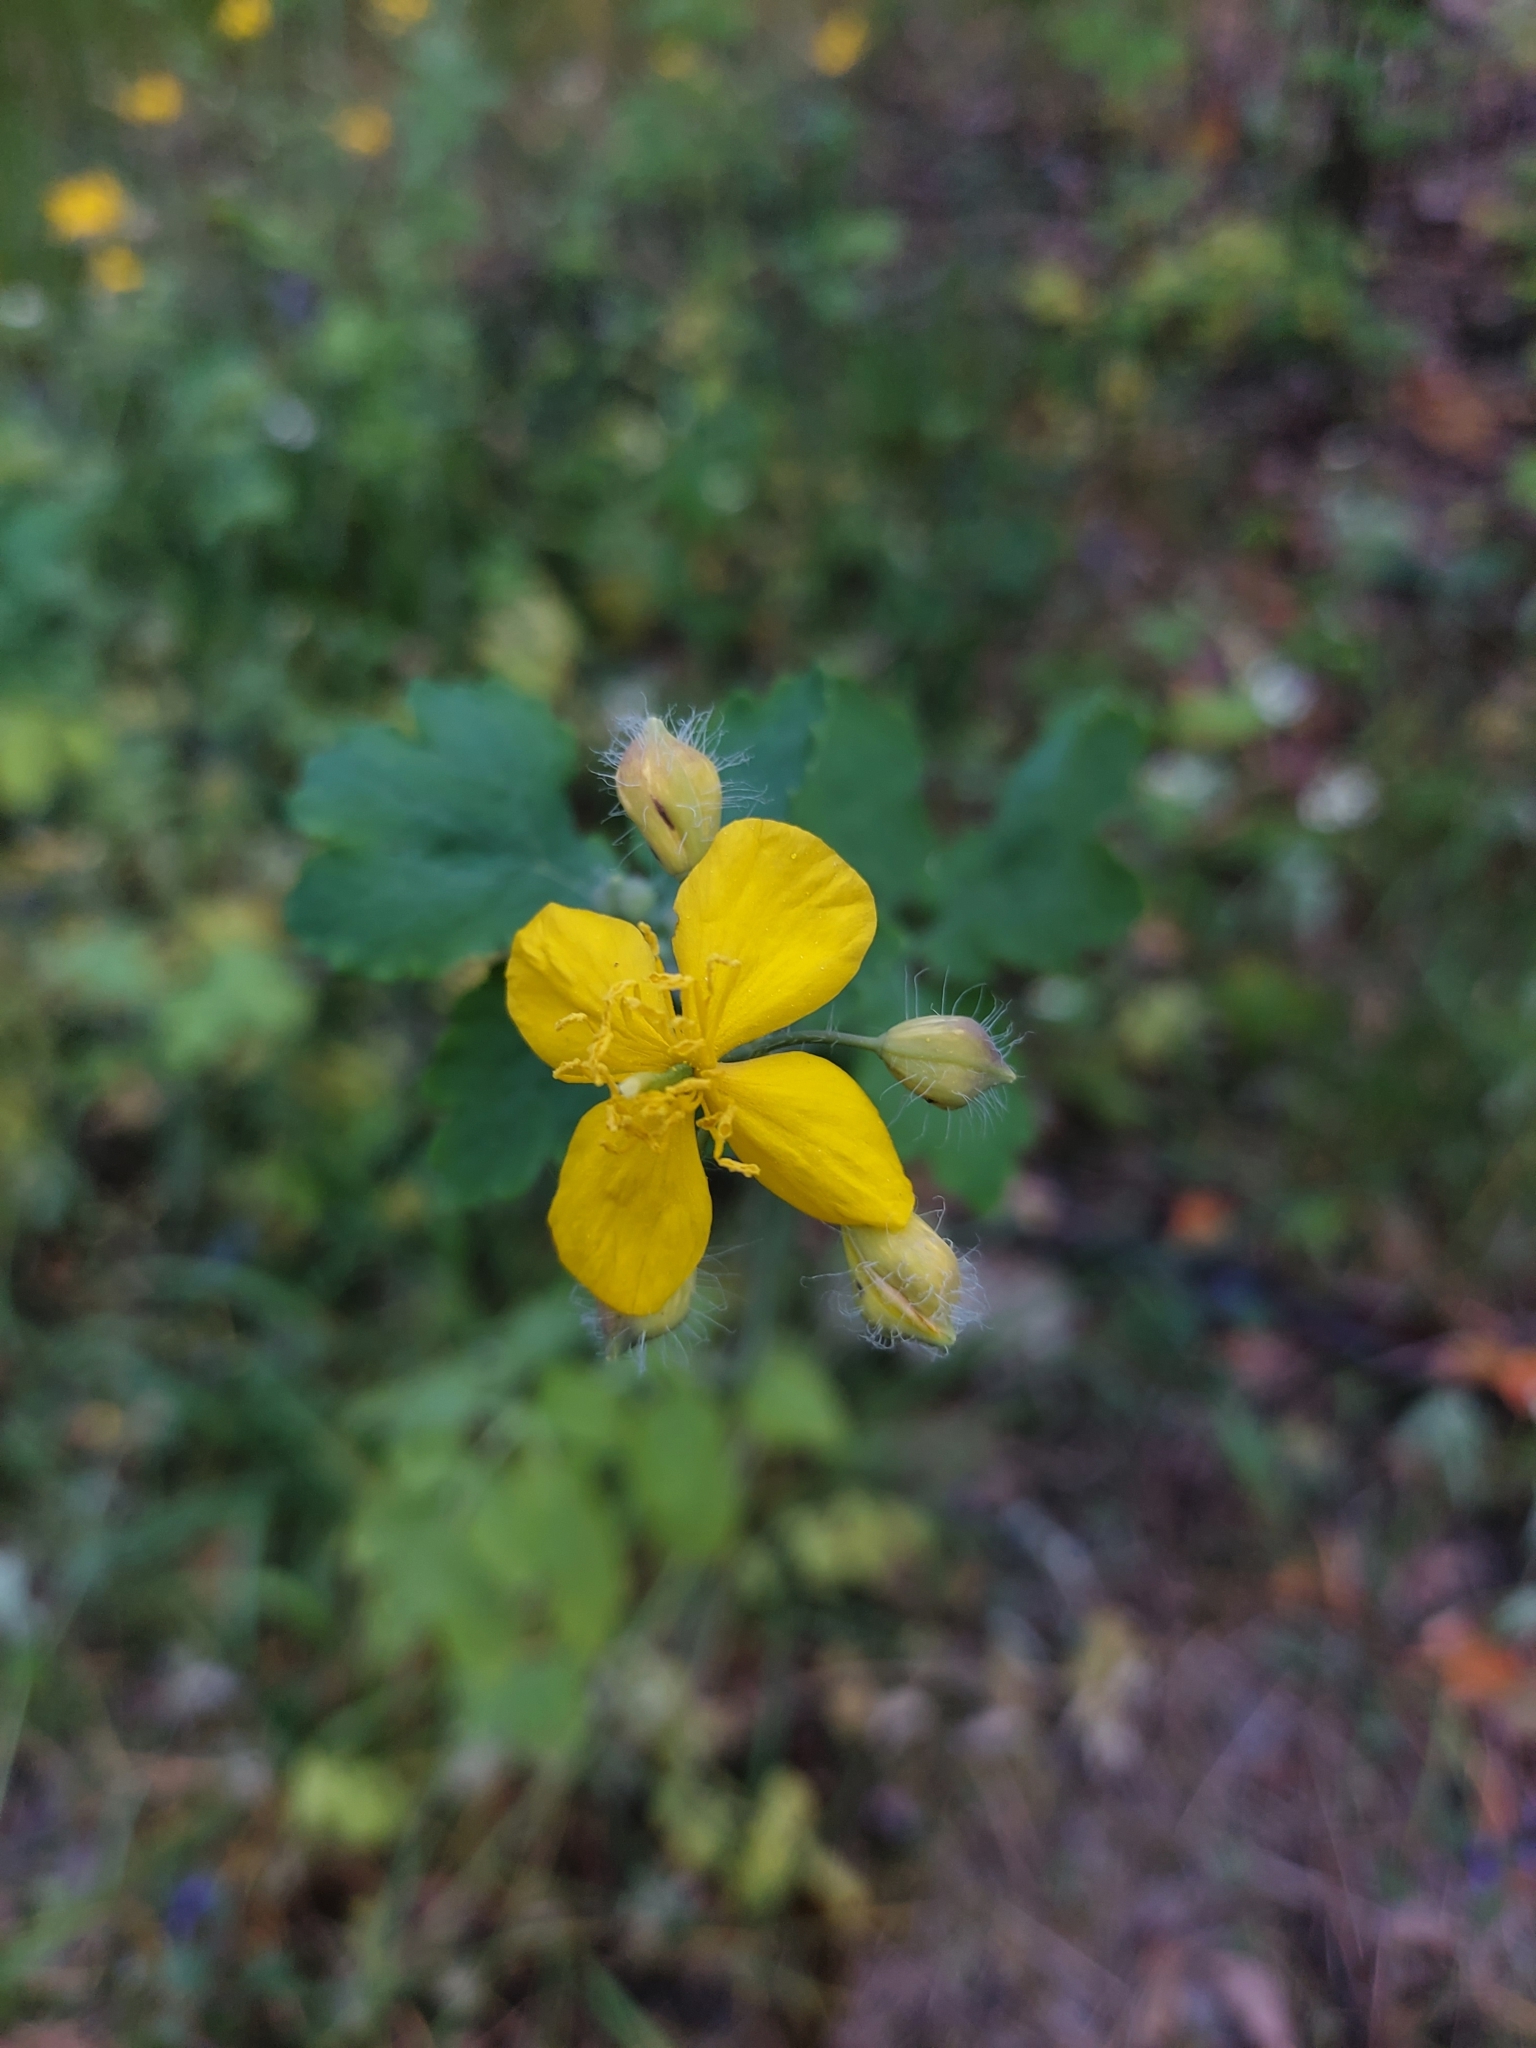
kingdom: Plantae
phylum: Tracheophyta
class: Magnoliopsida
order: Ranunculales
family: Papaveraceae
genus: Chelidonium
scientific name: Chelidonium majus
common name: Greater celandine
